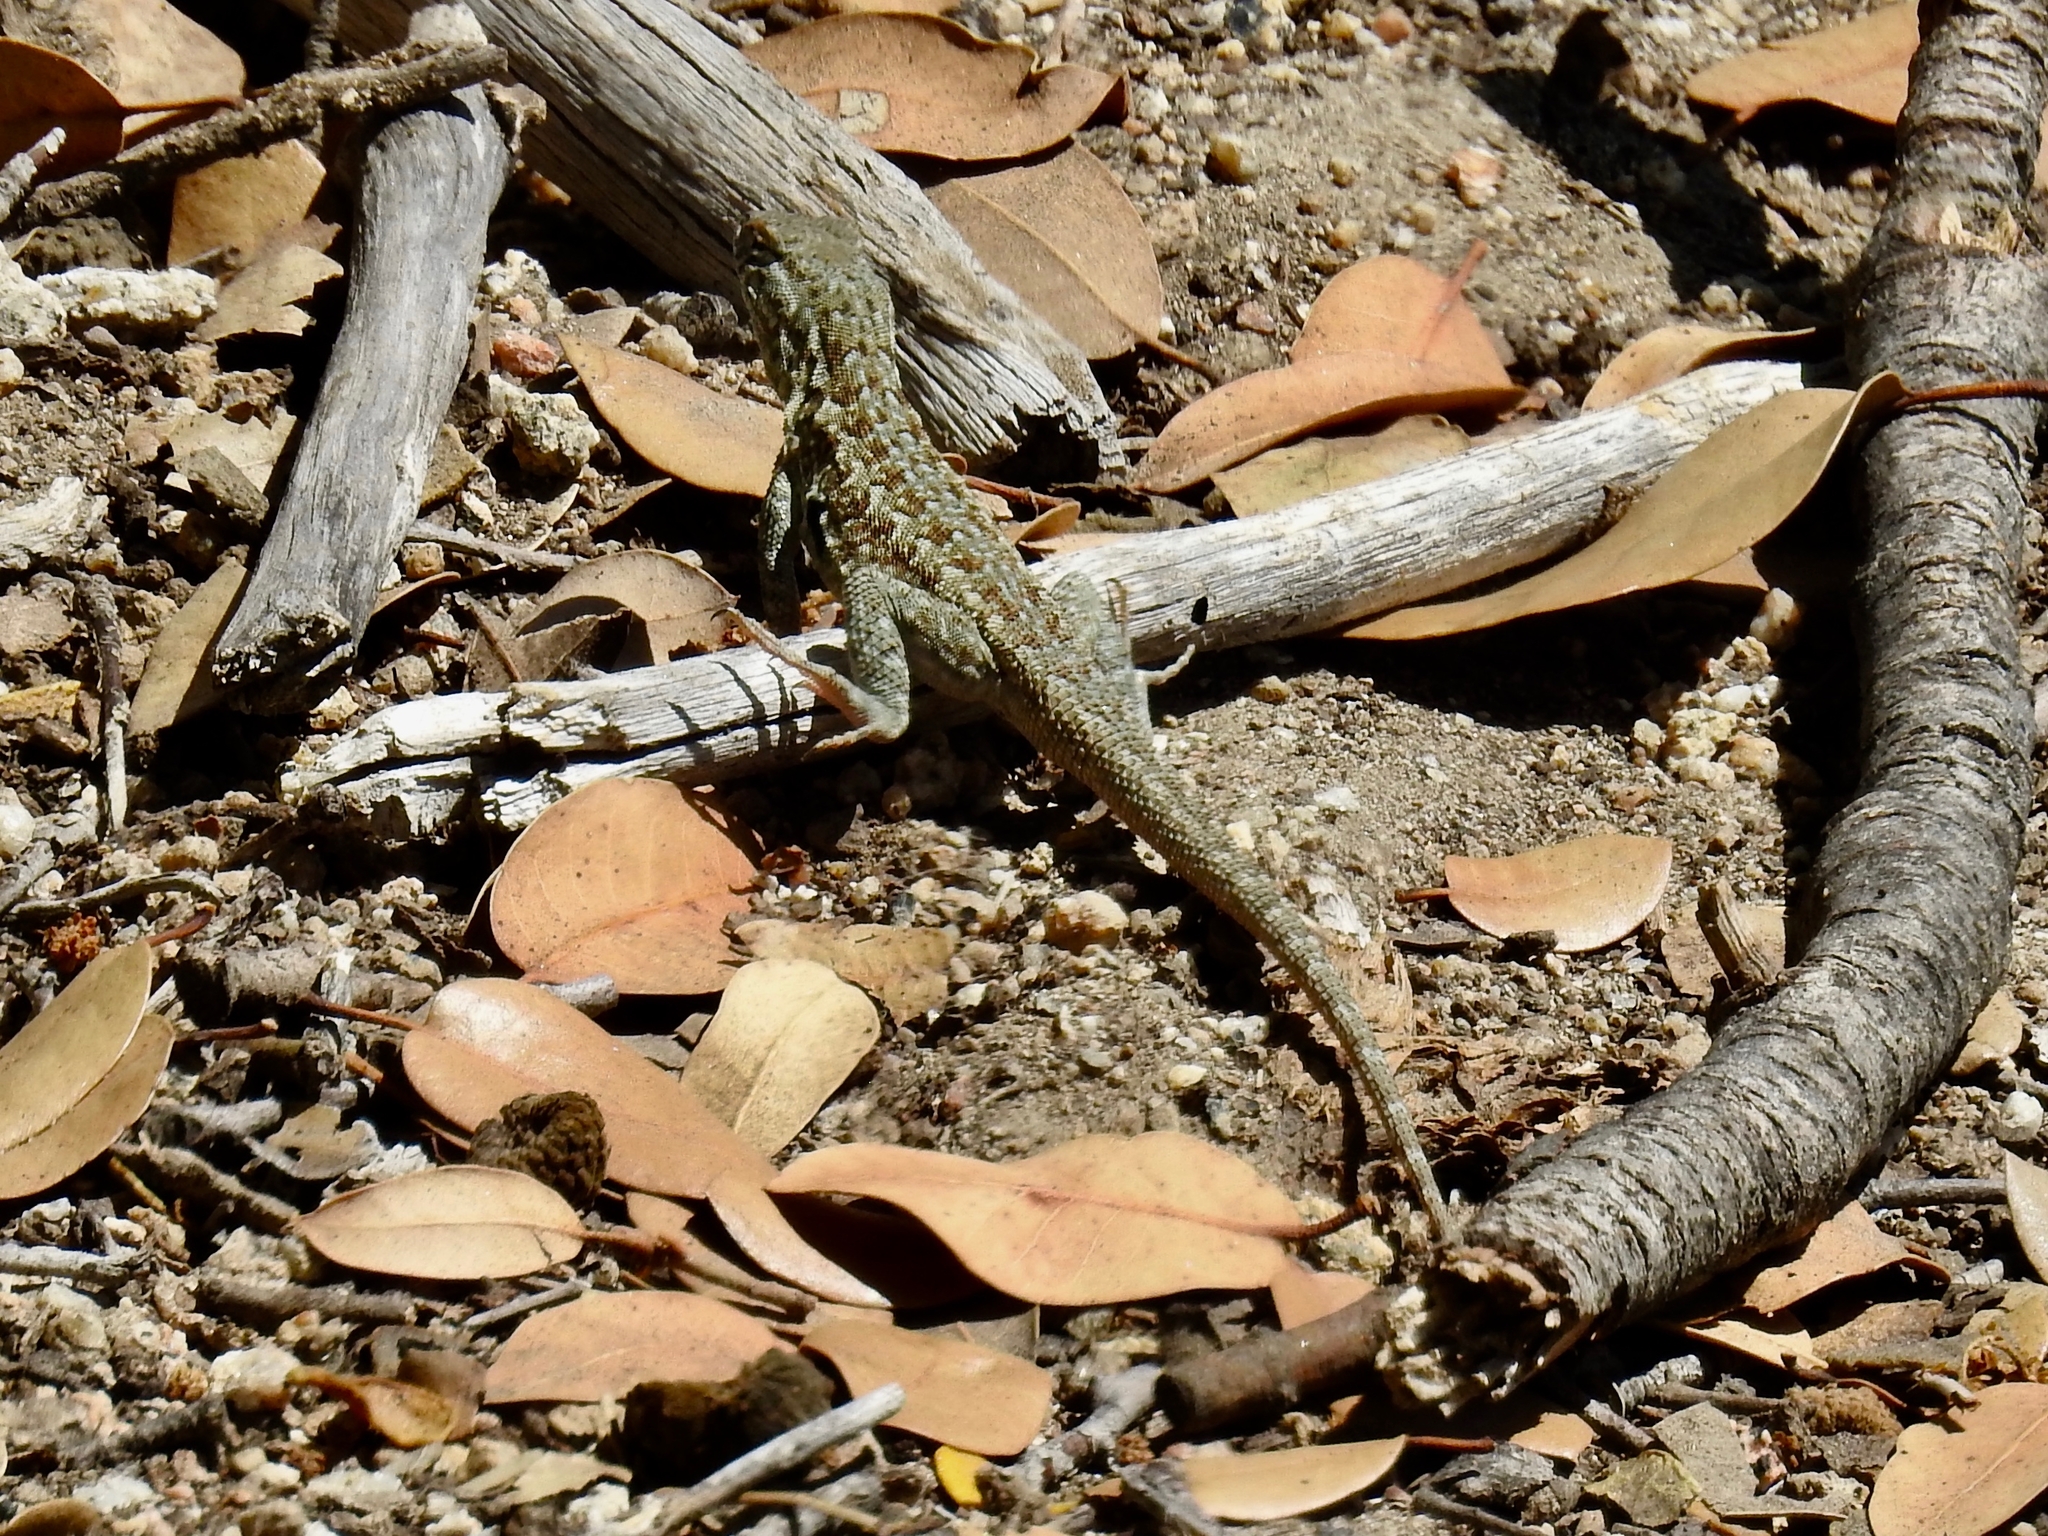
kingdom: Animalia
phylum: Chordata
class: Squamata
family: Phrynosomatidae
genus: Uta
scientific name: Uta stansburiana
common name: Side-blotched lizard
